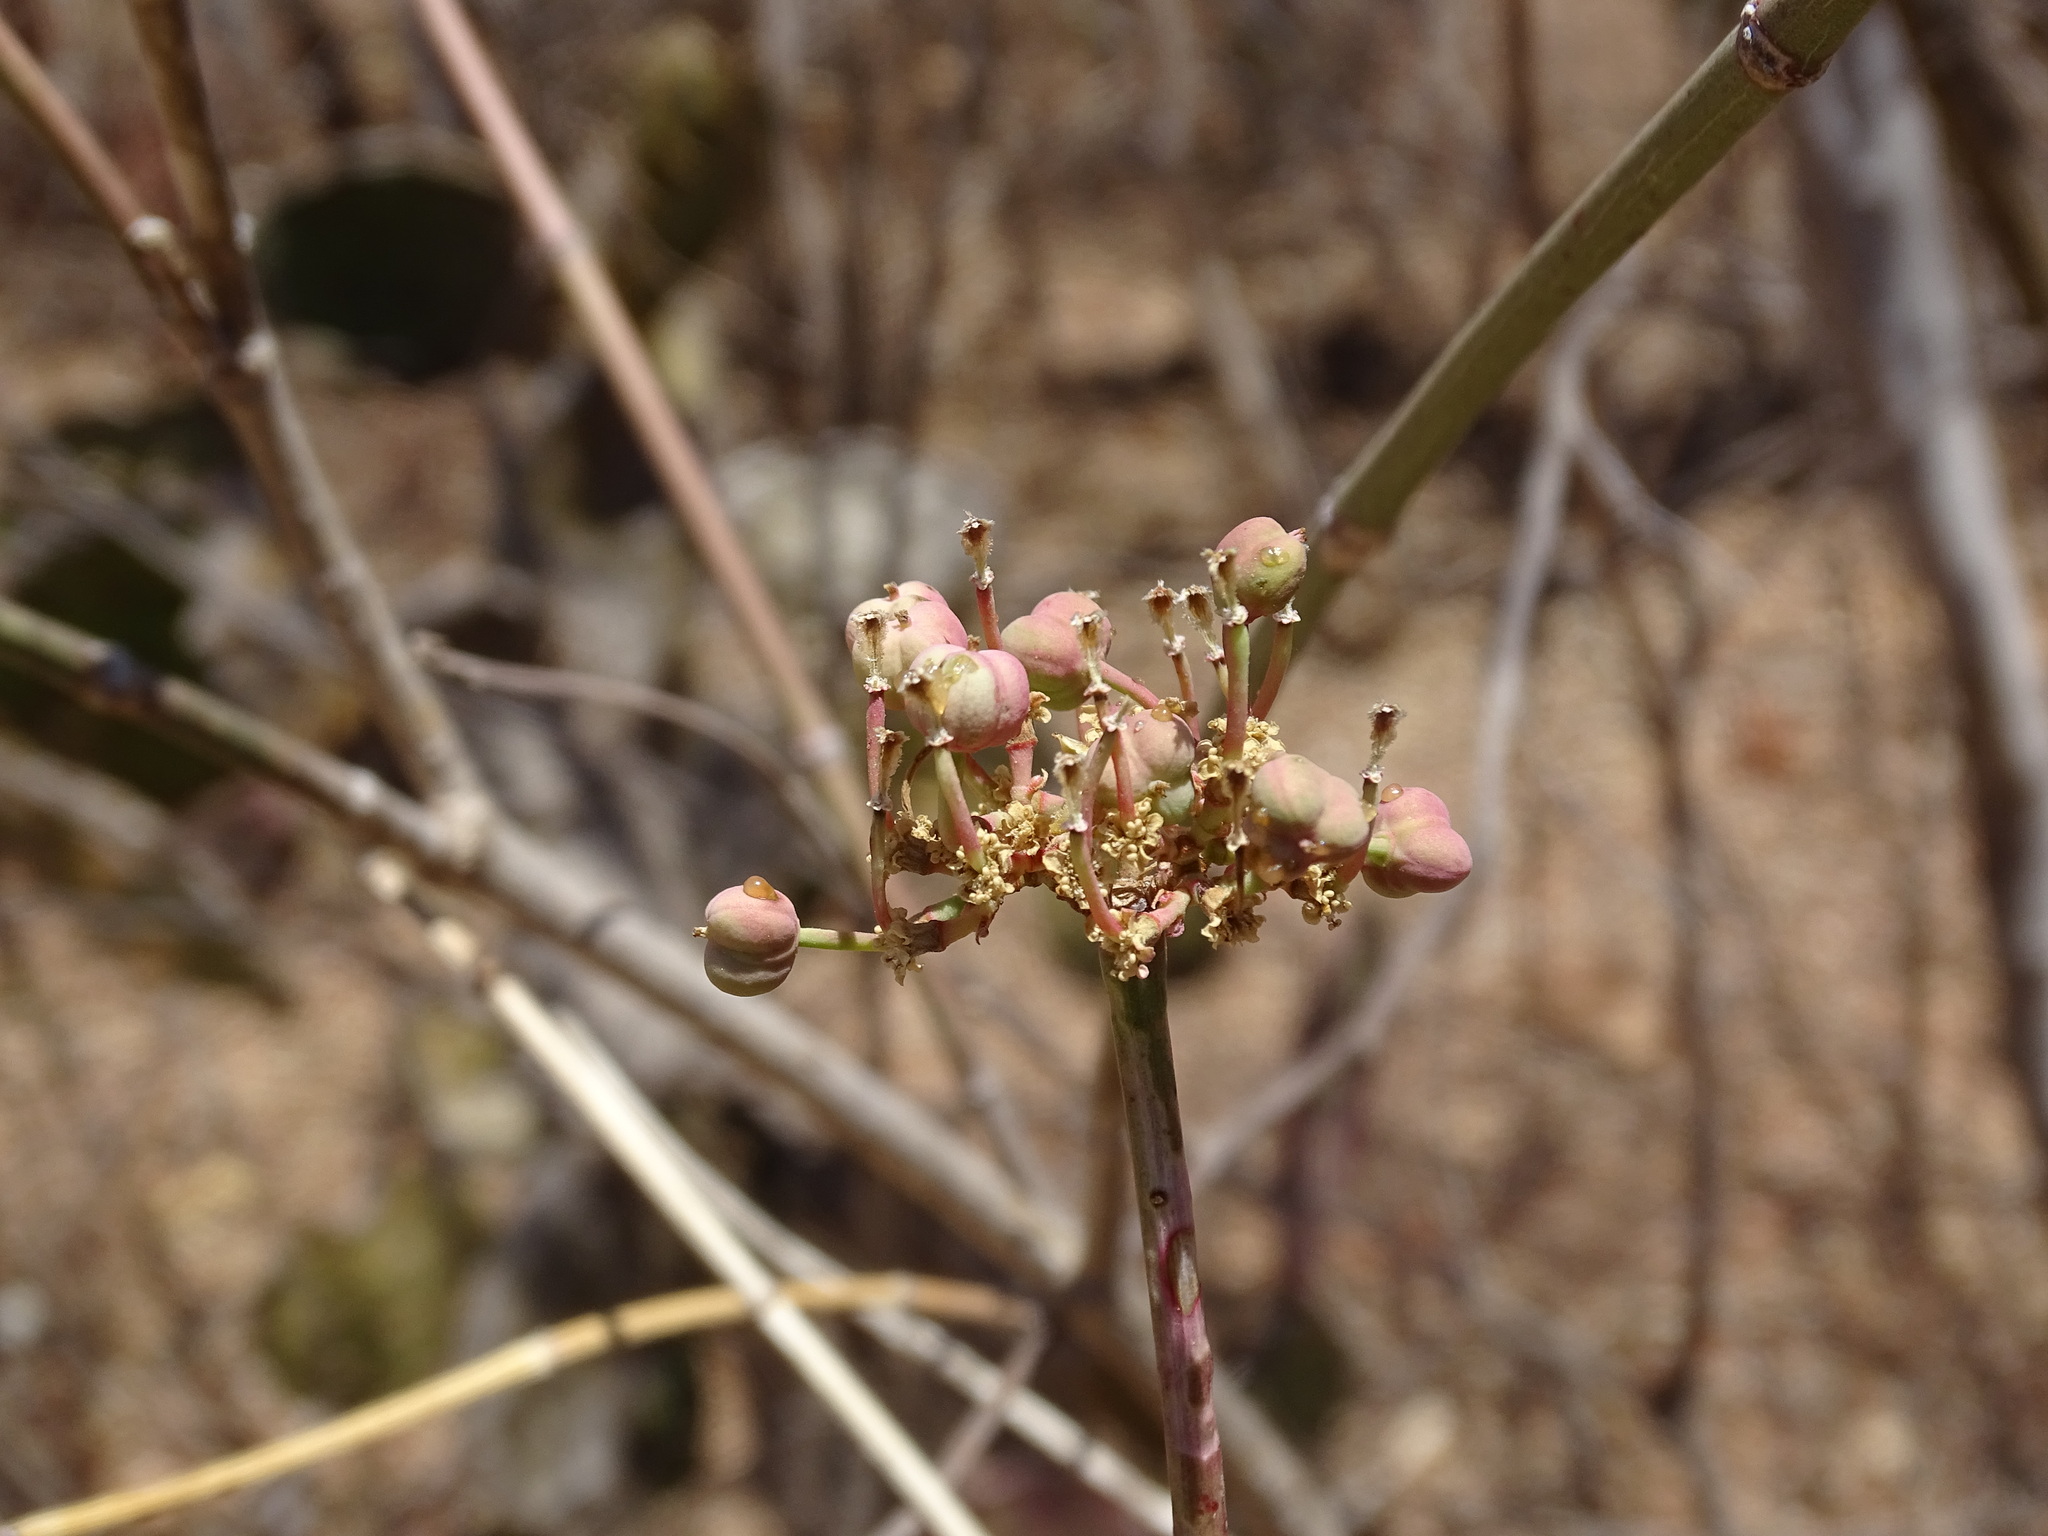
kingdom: Plantae
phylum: Tracheophyta
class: Magnoliopsida
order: Malpighiales
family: Euphorbiaceae
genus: Euphorbia
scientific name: Euphorbia cymosa
